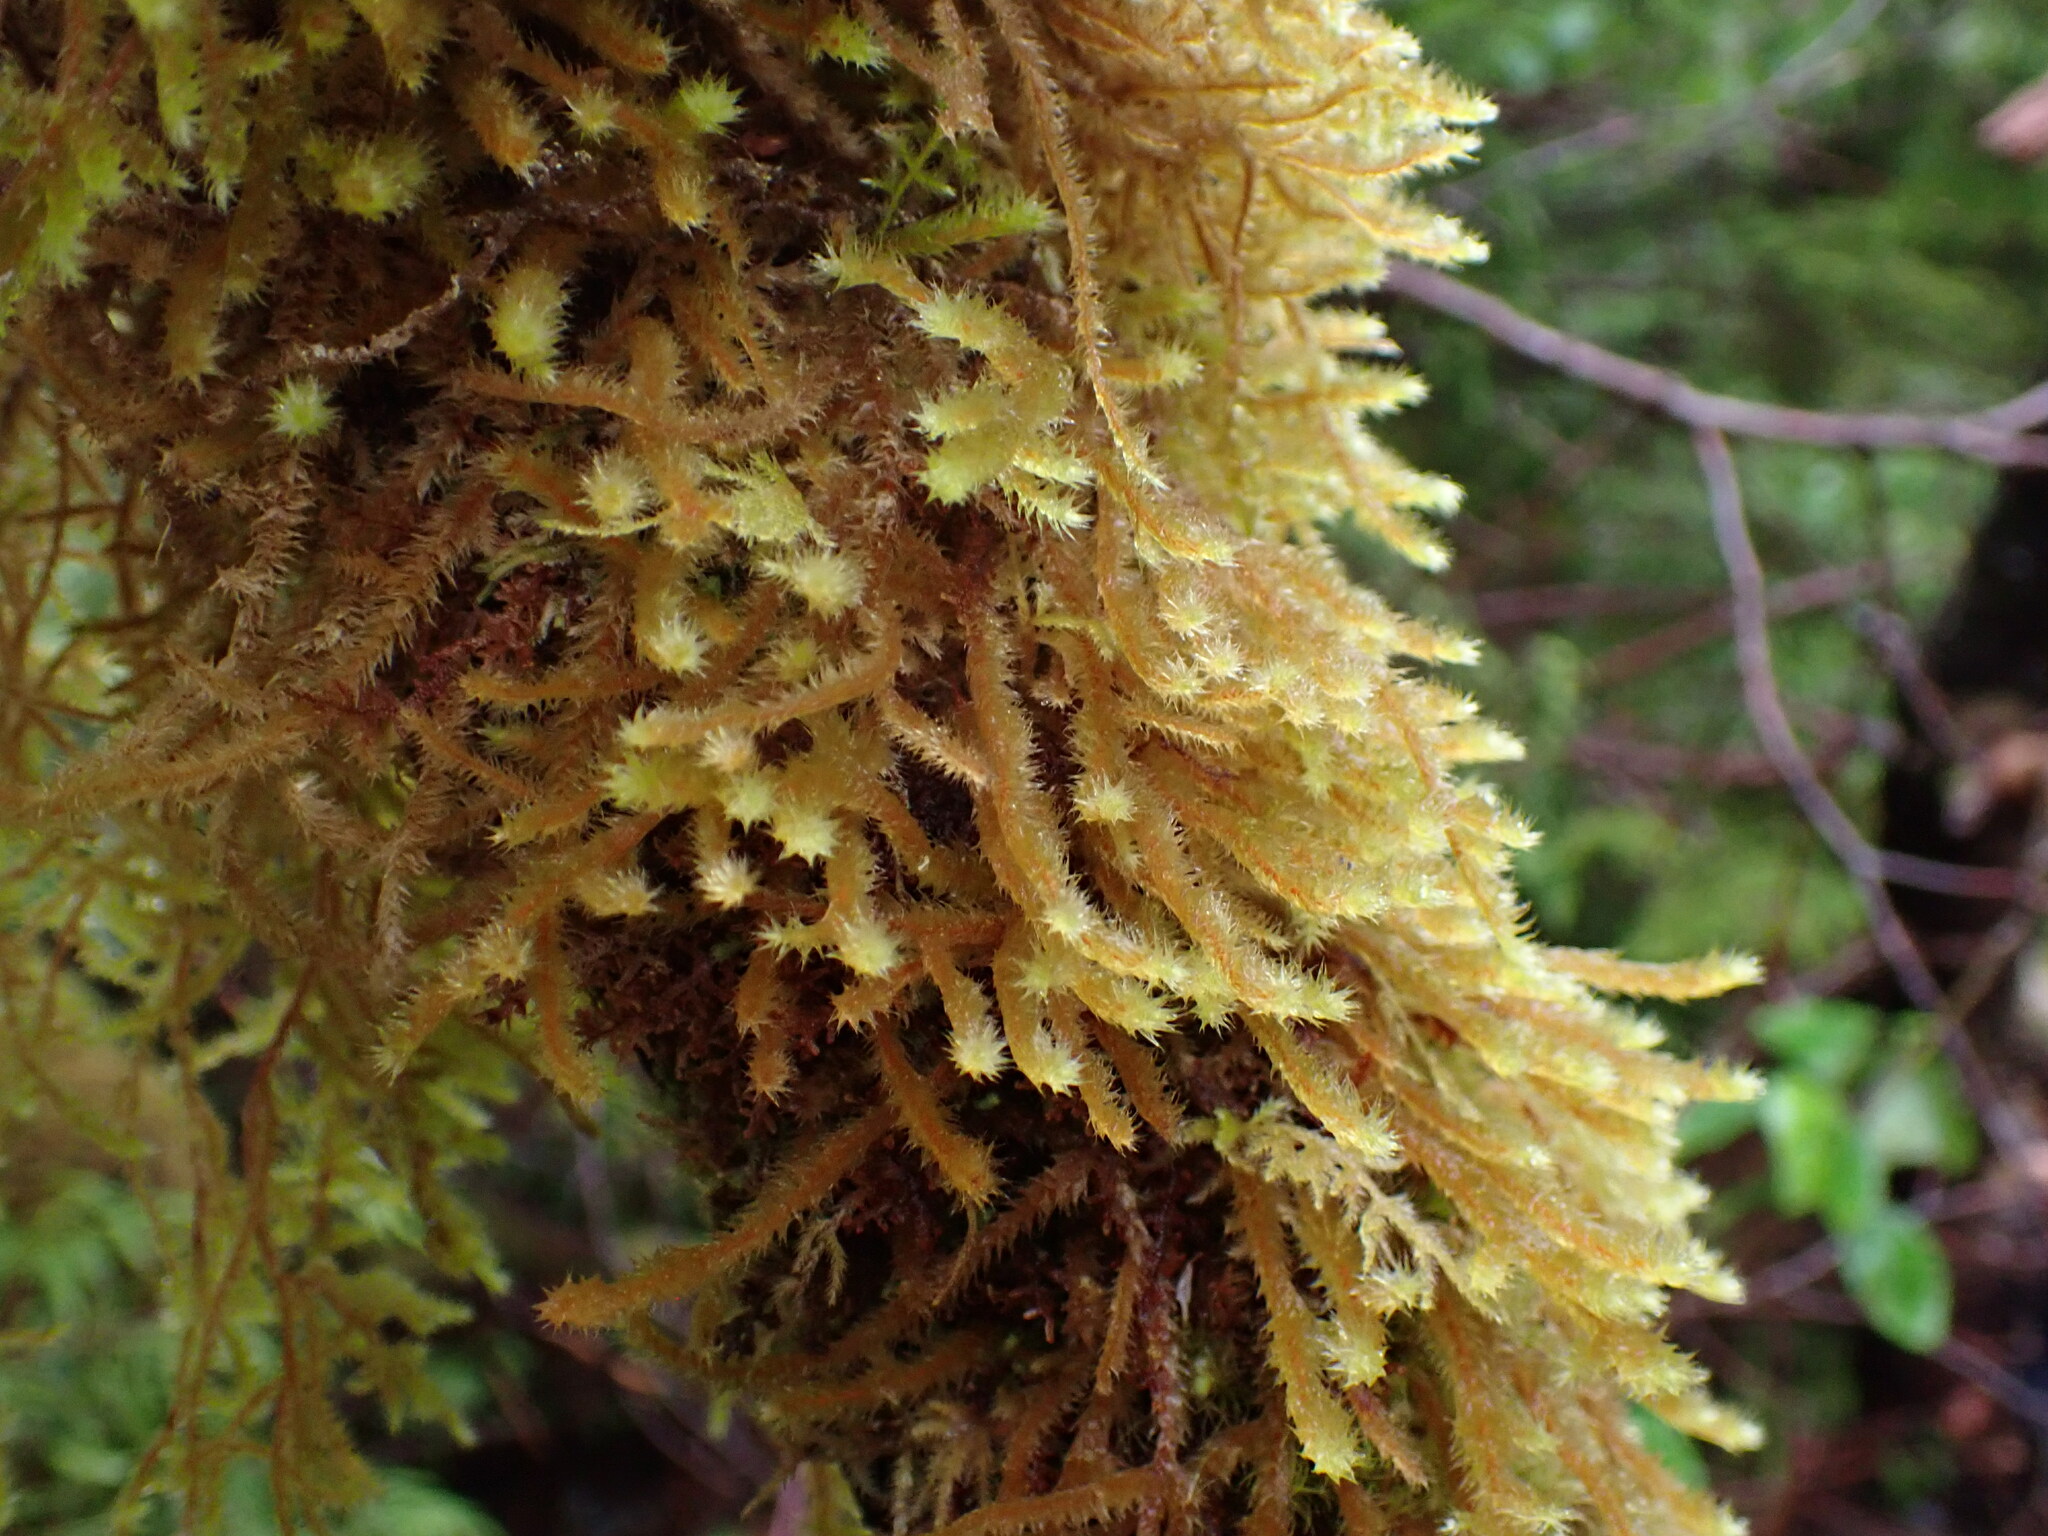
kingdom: Plantae
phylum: Bryophyta
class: Bryopsida
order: Hypnales
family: Antitrichiaceae
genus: Antitrichia
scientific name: Antitrichia curtipendula
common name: Pendulous wing-moss
